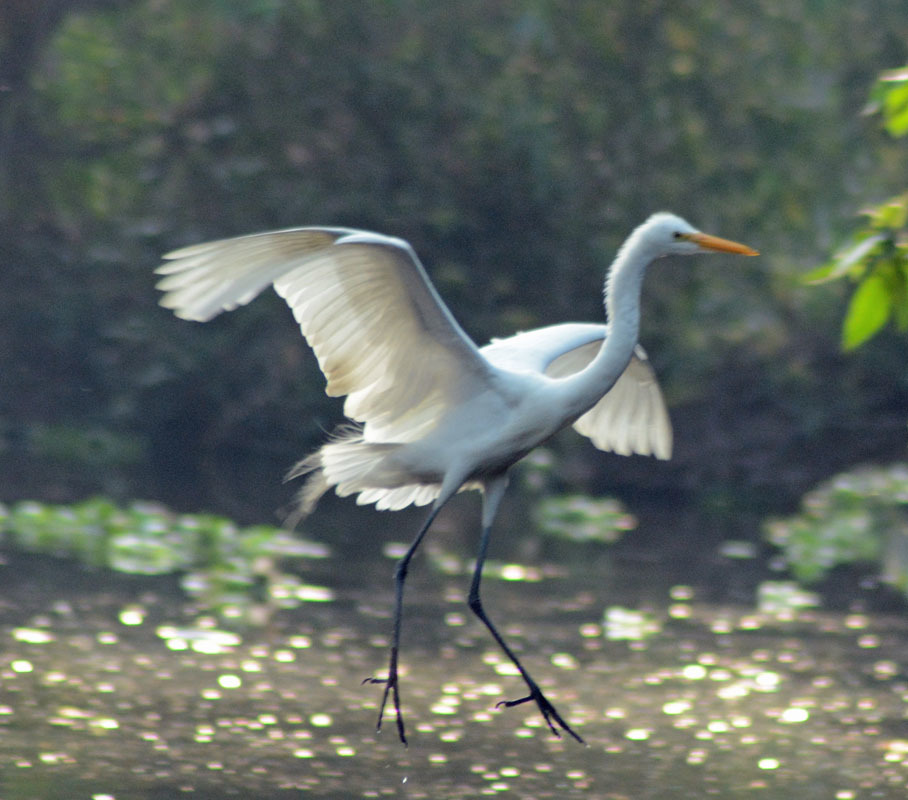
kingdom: Animalia
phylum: Chordata
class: Aves
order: Pelecaniformes
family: Ardeidae
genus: Ardea
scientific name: Ardea alba
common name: Great egret
